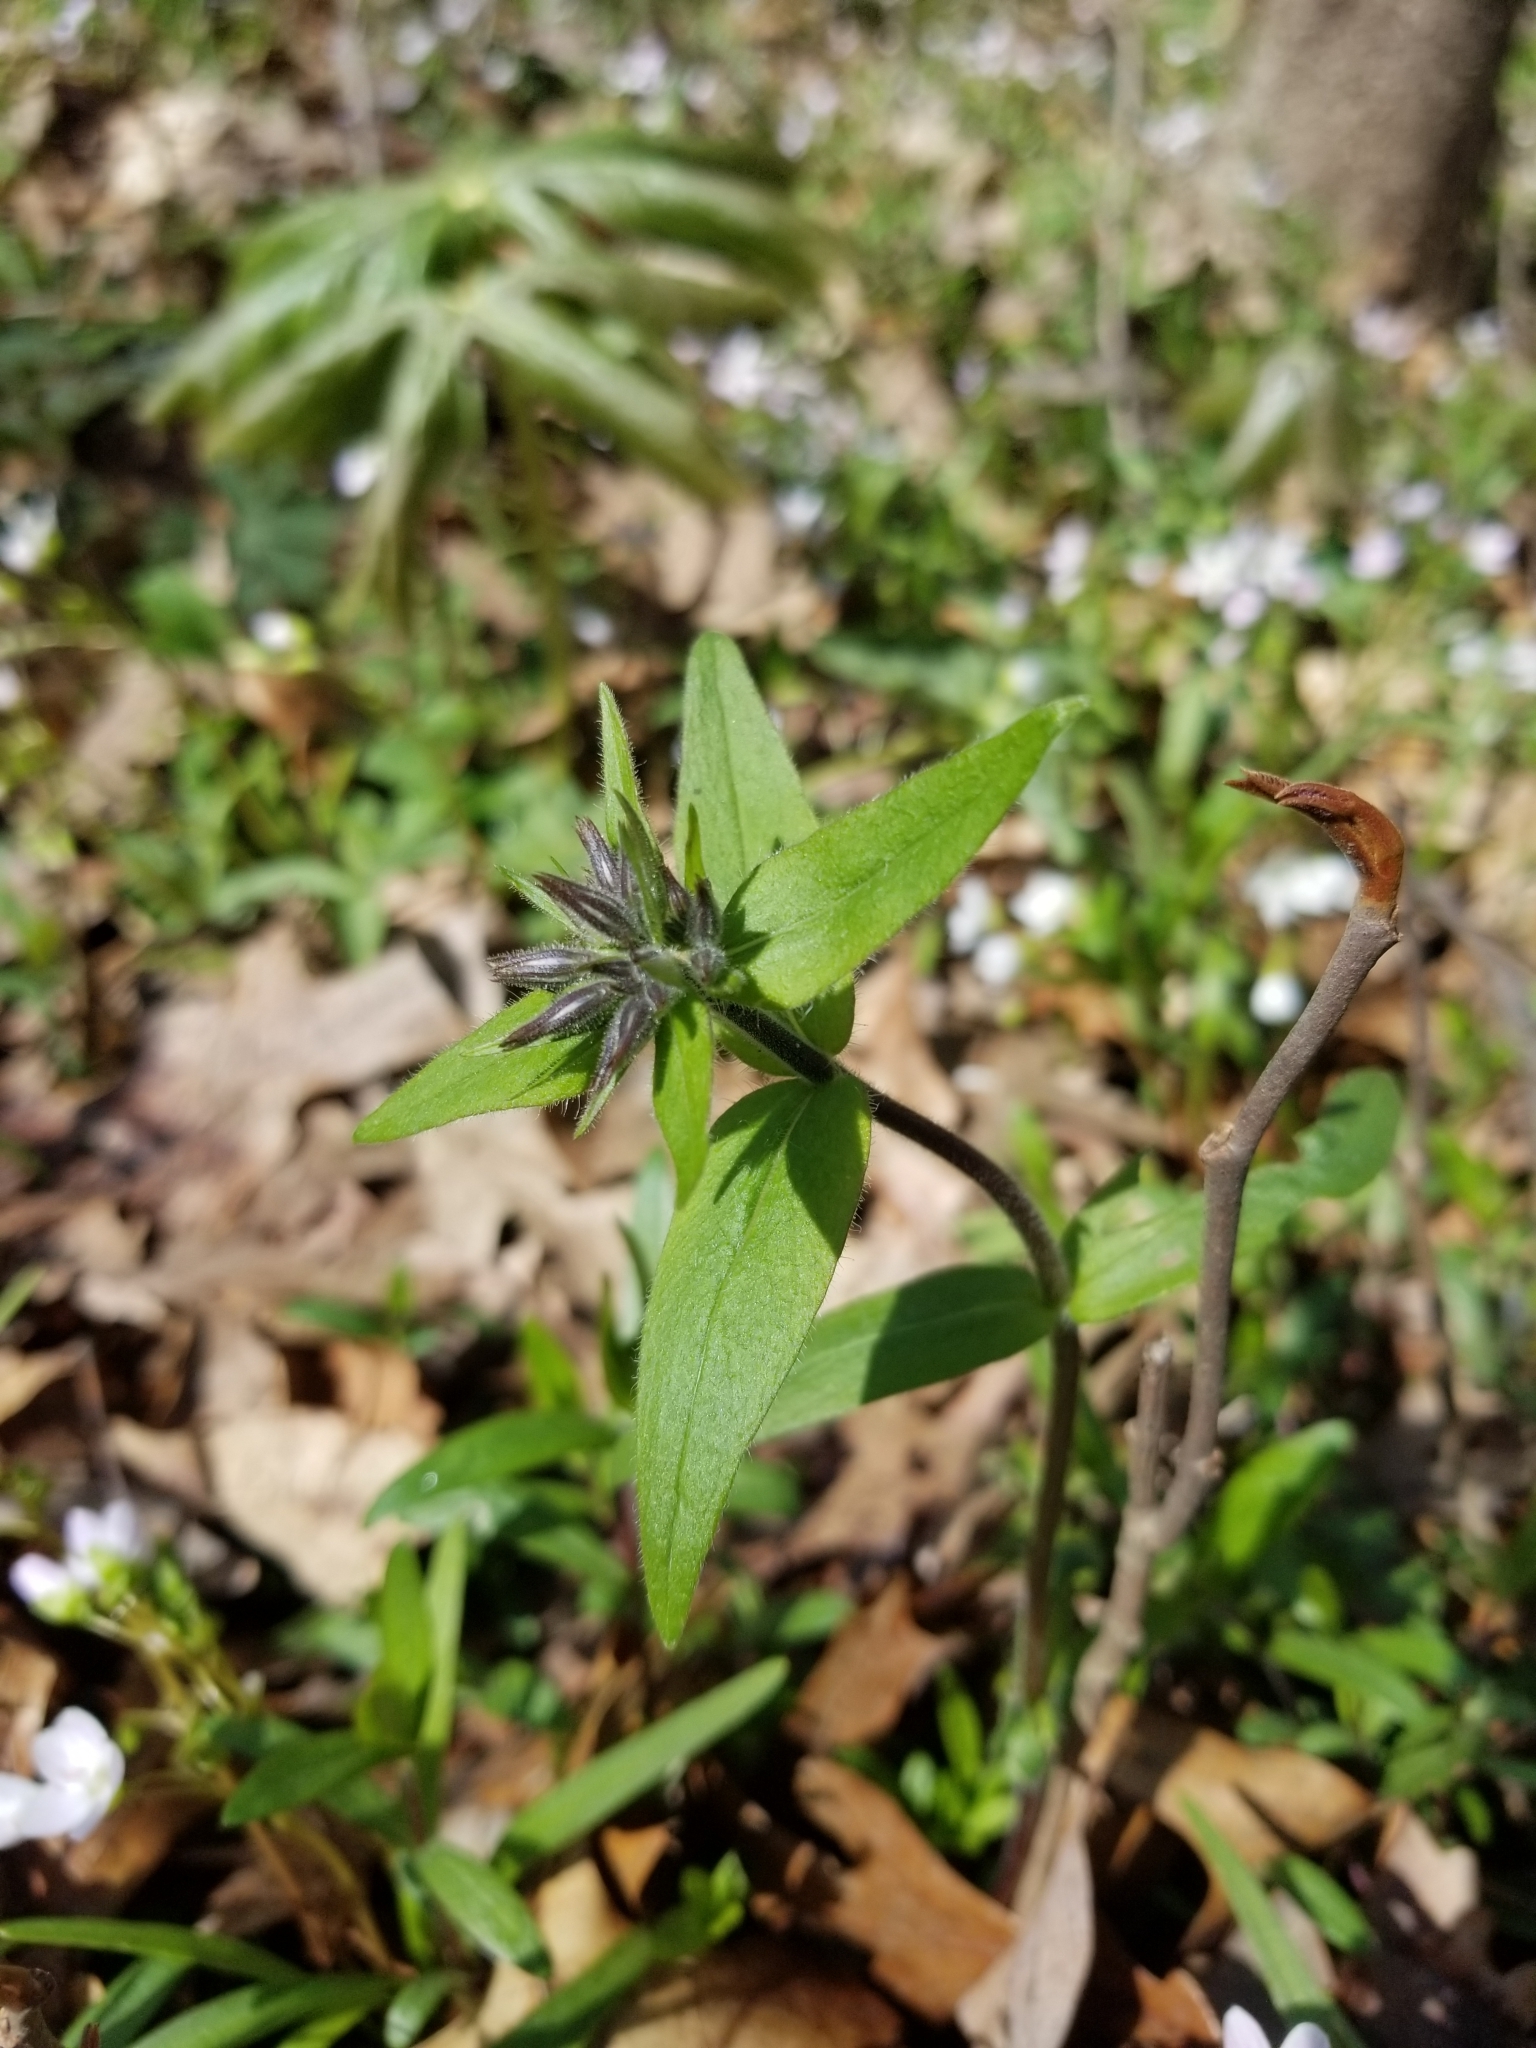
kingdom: Plantae
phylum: Tracheophyta
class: Magnoliopsida
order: Ericales
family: Polemoniaceae
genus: Phlox
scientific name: Phlox divaricata
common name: Blue phlox
